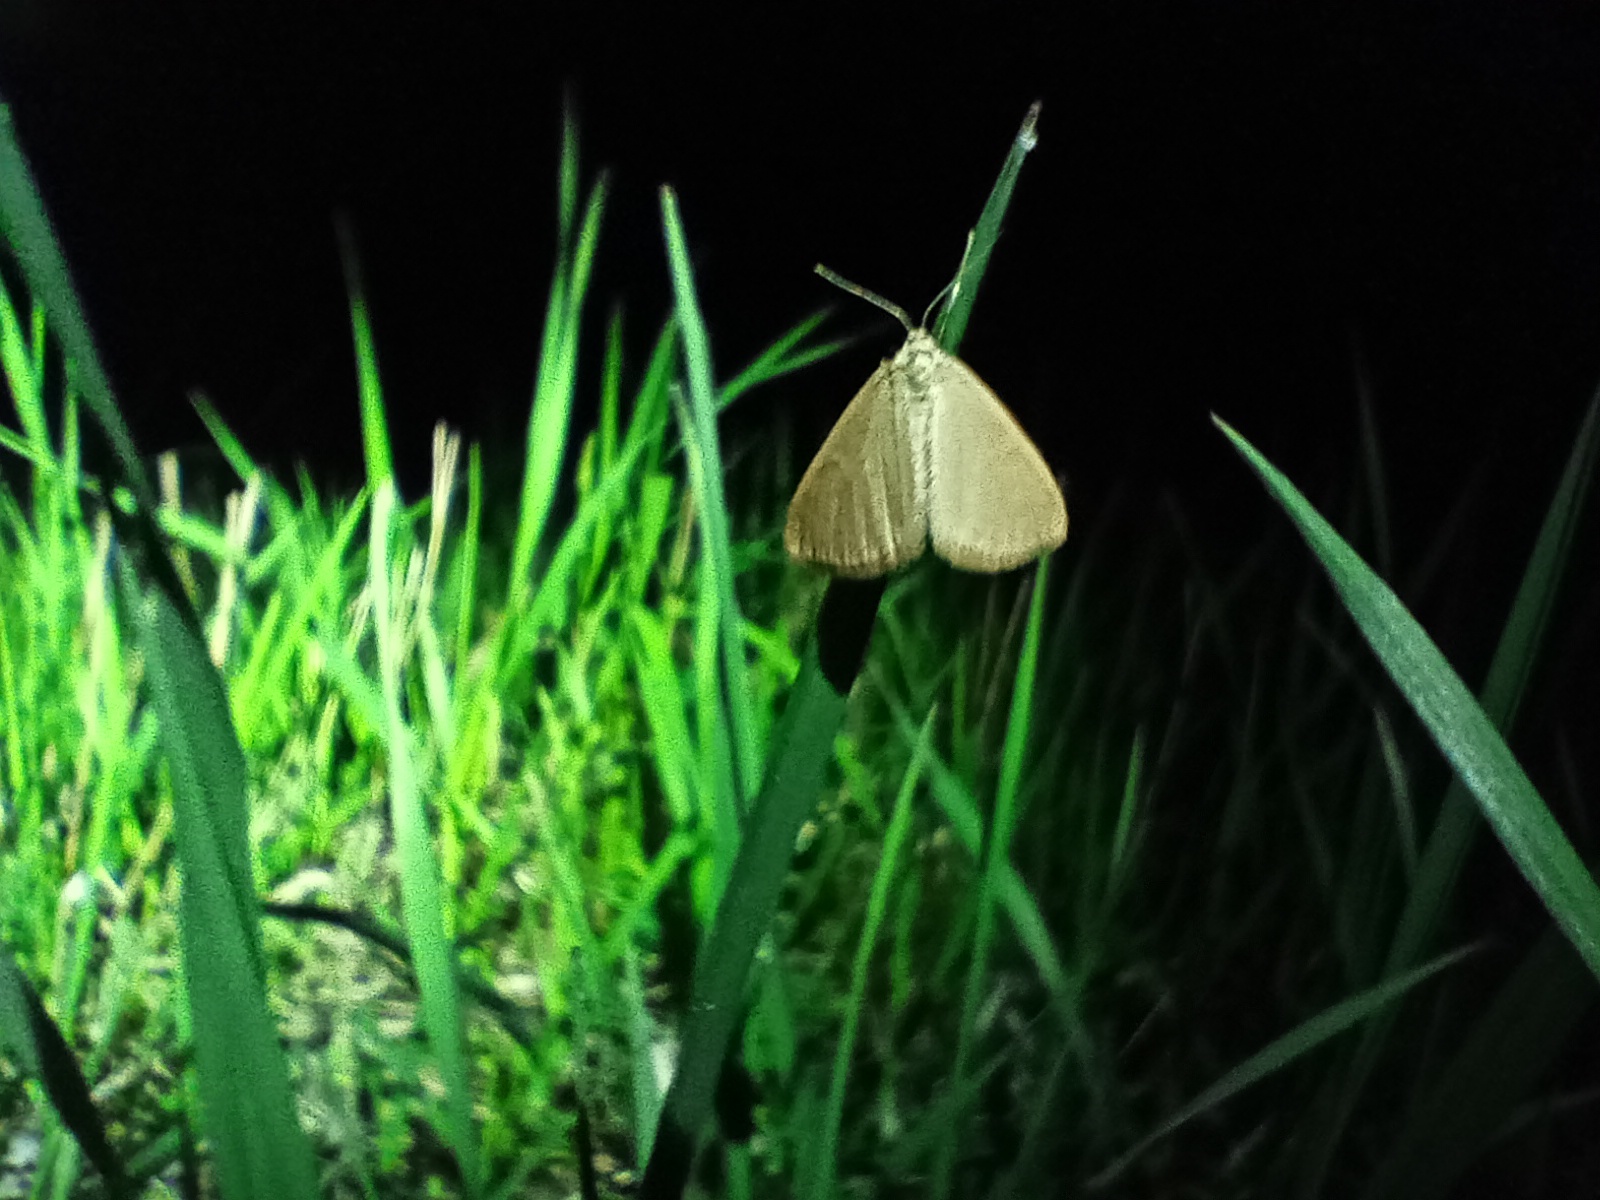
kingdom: Animalia
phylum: Arthropoda
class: Insecta
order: Lepidoptera
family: Geometridae
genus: Minoa
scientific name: Minoa murinata
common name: Drab looper
